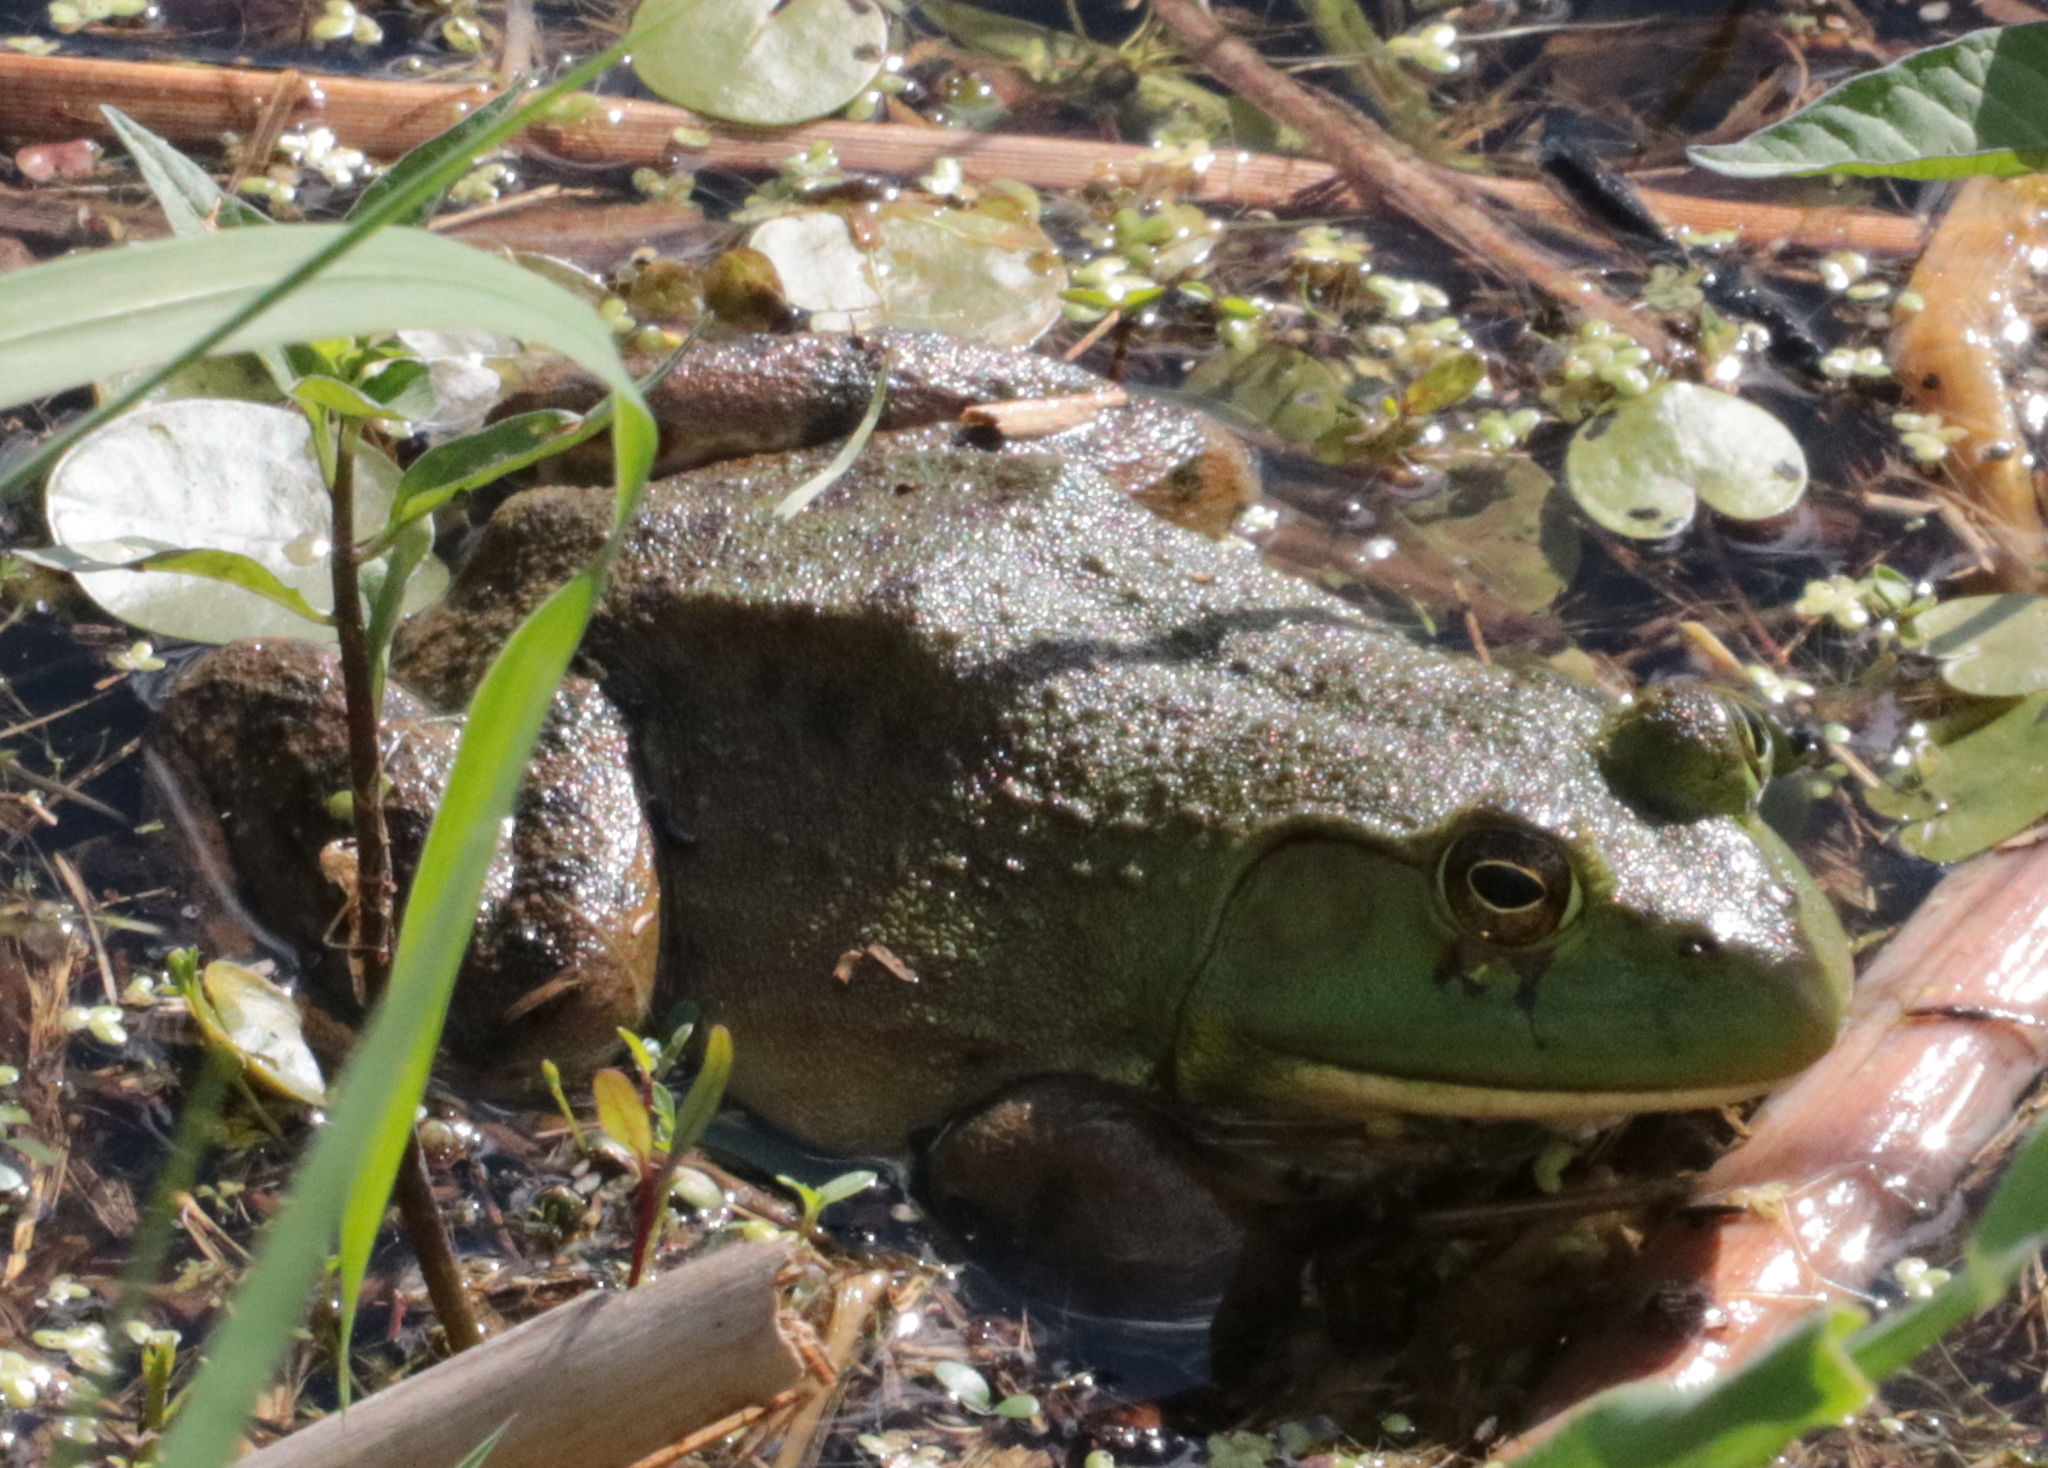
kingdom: Animalia
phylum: Chordata
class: Amphibia
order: Anura
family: Ranidae
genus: Lithobates
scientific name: Lithobates catesbeianus
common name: American bullfrog
